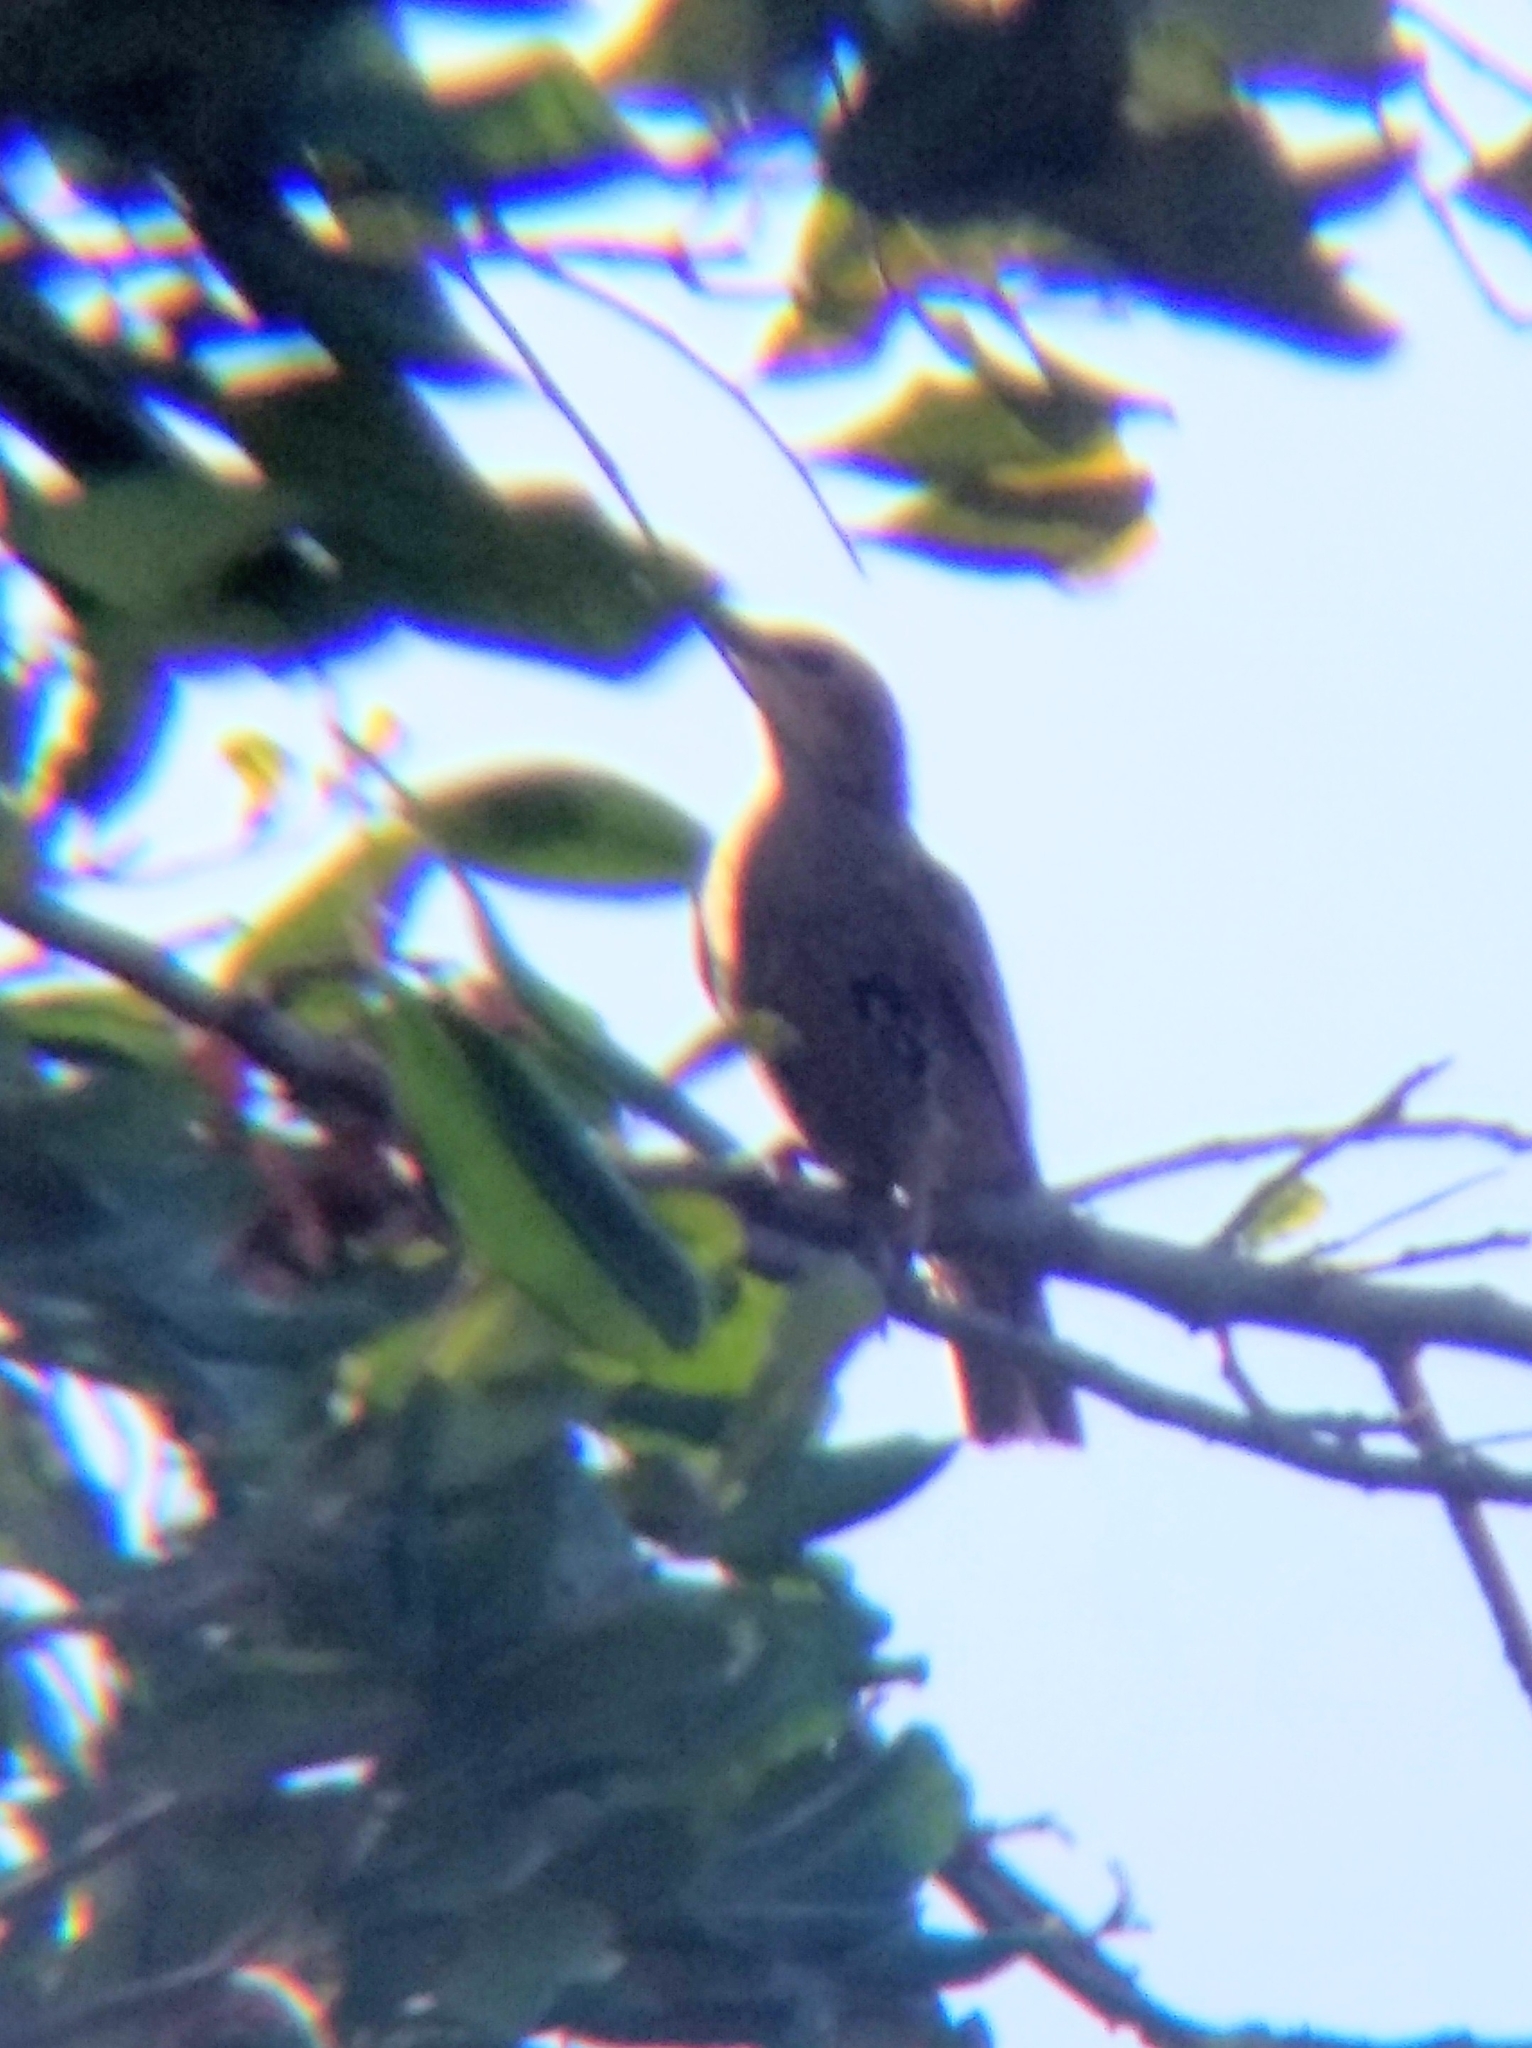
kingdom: Animalia
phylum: Chordata
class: Aves
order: Passeriformes
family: Sturnidae
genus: Sturnus
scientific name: Sturnus vulgaris
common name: Common starling
